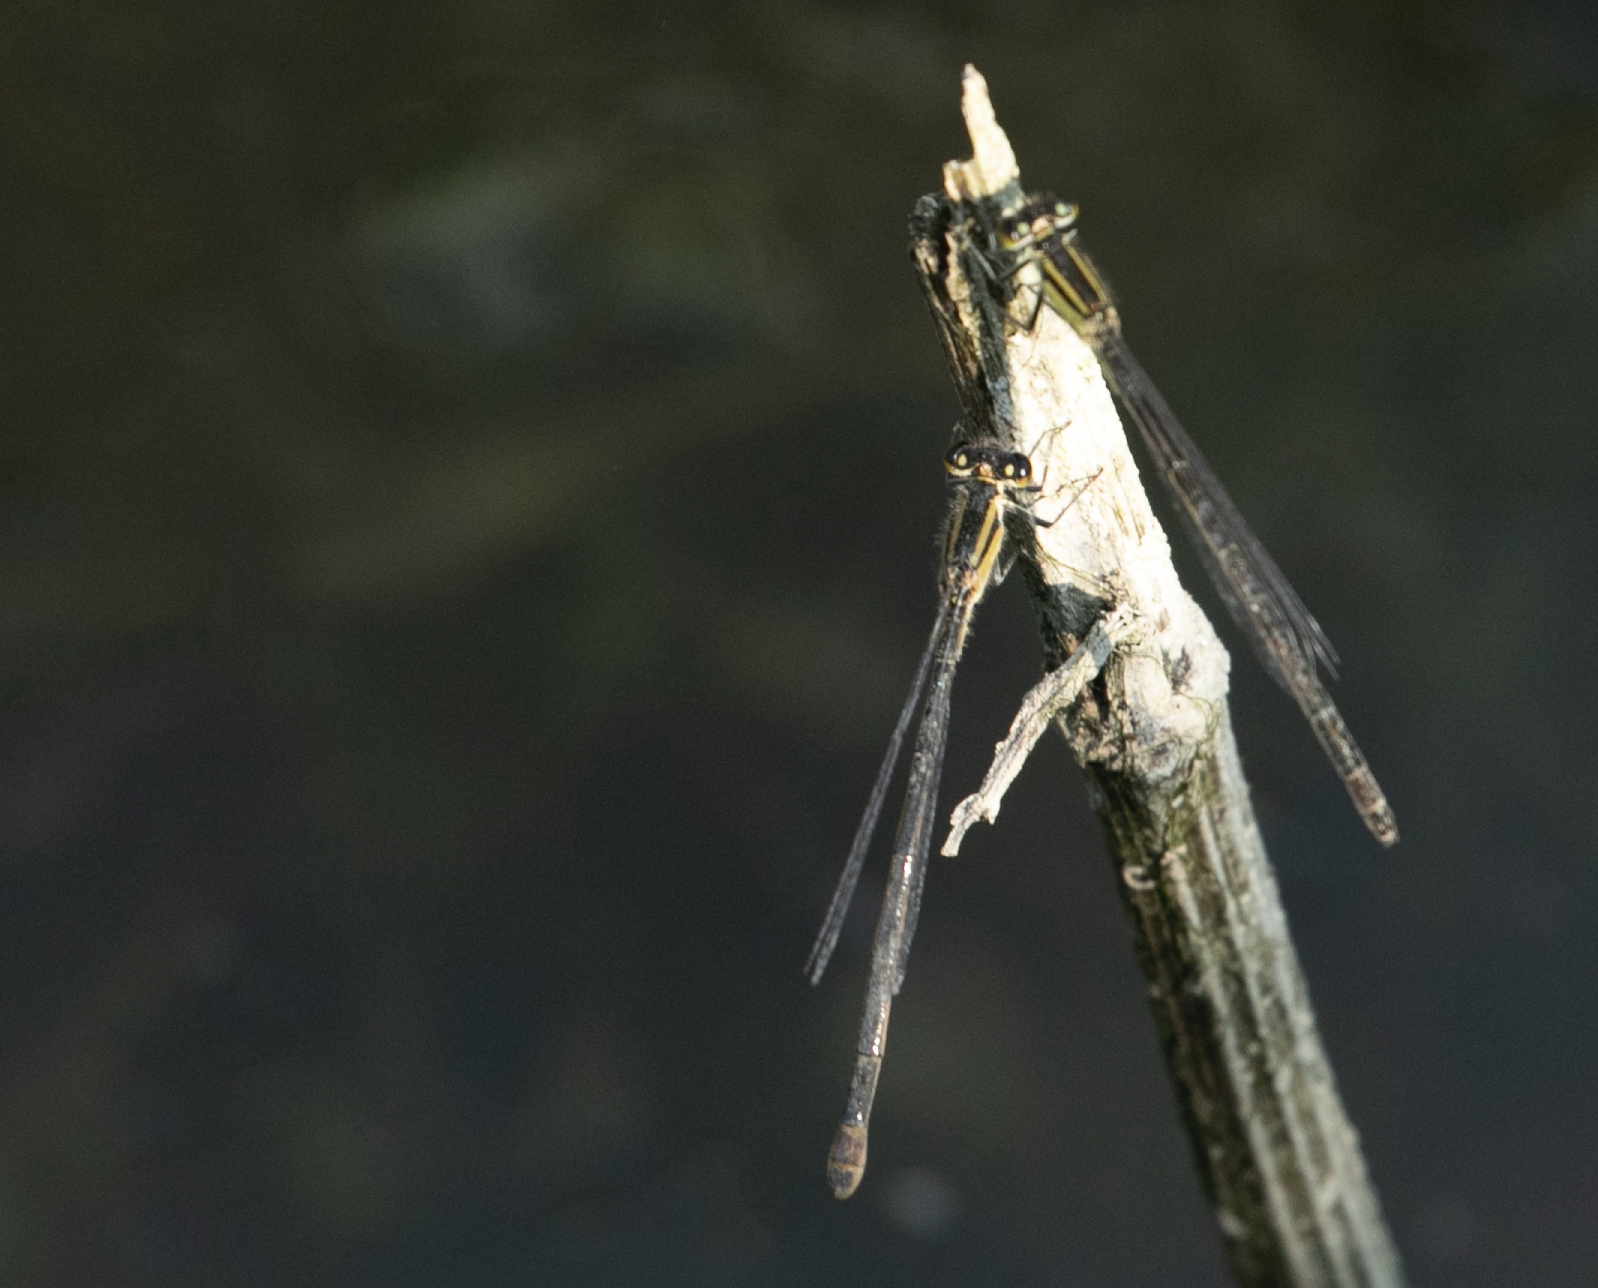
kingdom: Animalia
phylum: Arthropoda
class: Insecta
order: Odonata
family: Coenagrionidae
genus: Ischnura
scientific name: Ischnura elegans
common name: Blue-tailed damselfly
